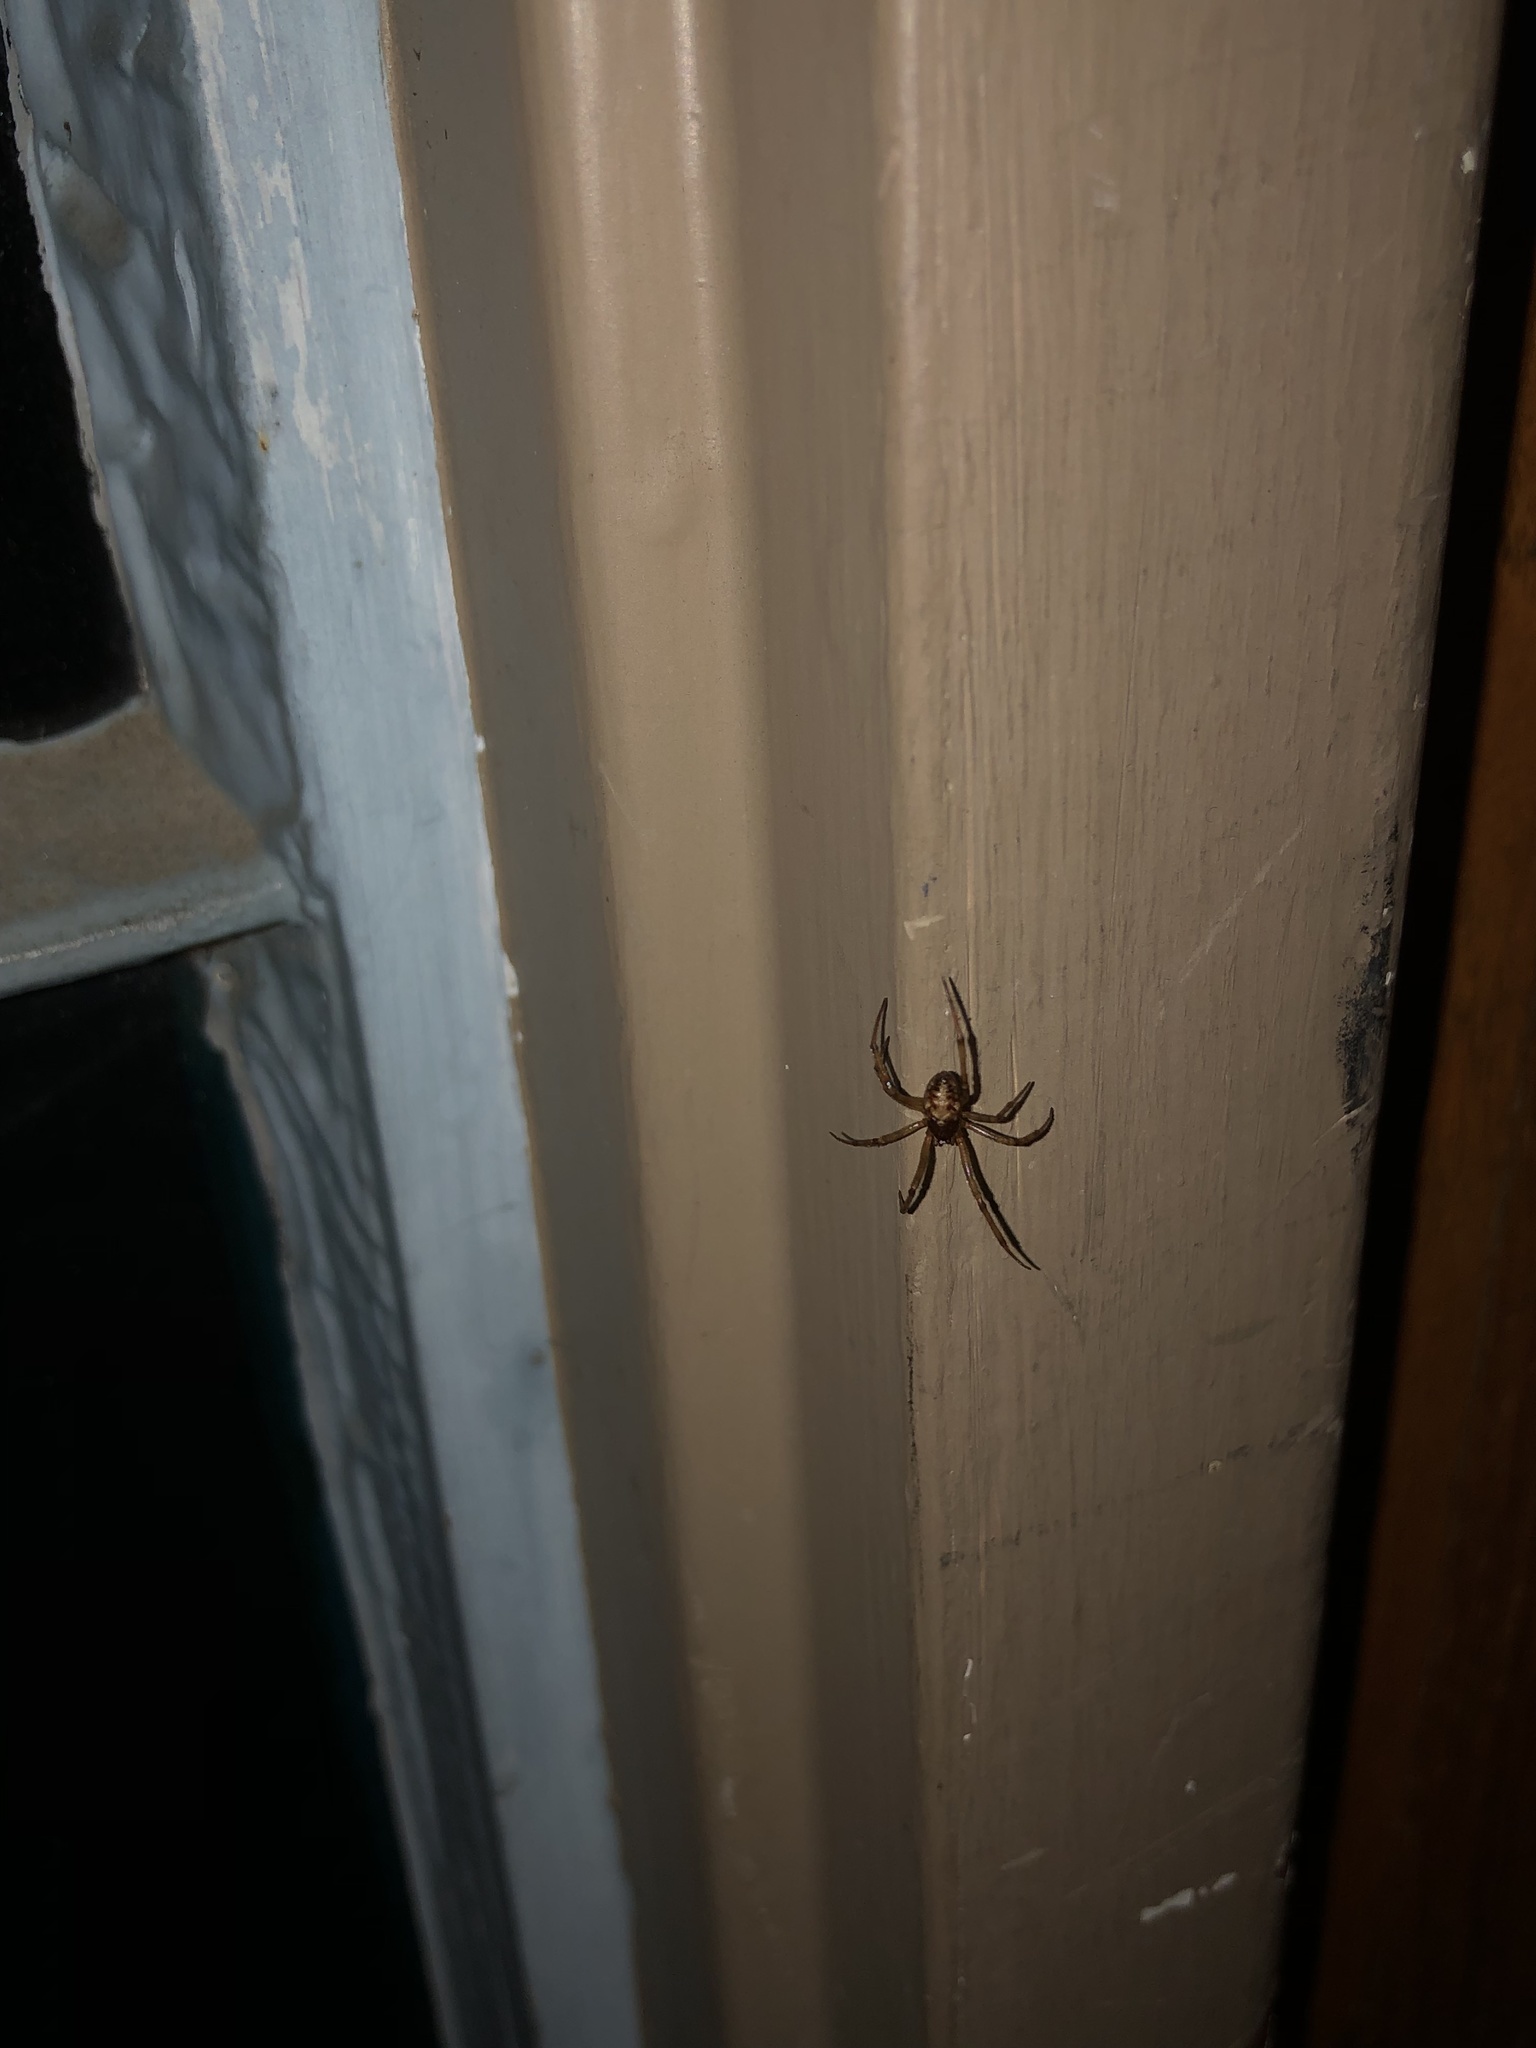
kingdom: Animalia
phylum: Arthropoda
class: Arachnida
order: Araneae
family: Theridiidae
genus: Steatoda
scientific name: Steatoda triangulosa
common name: Triangulate bud spider
